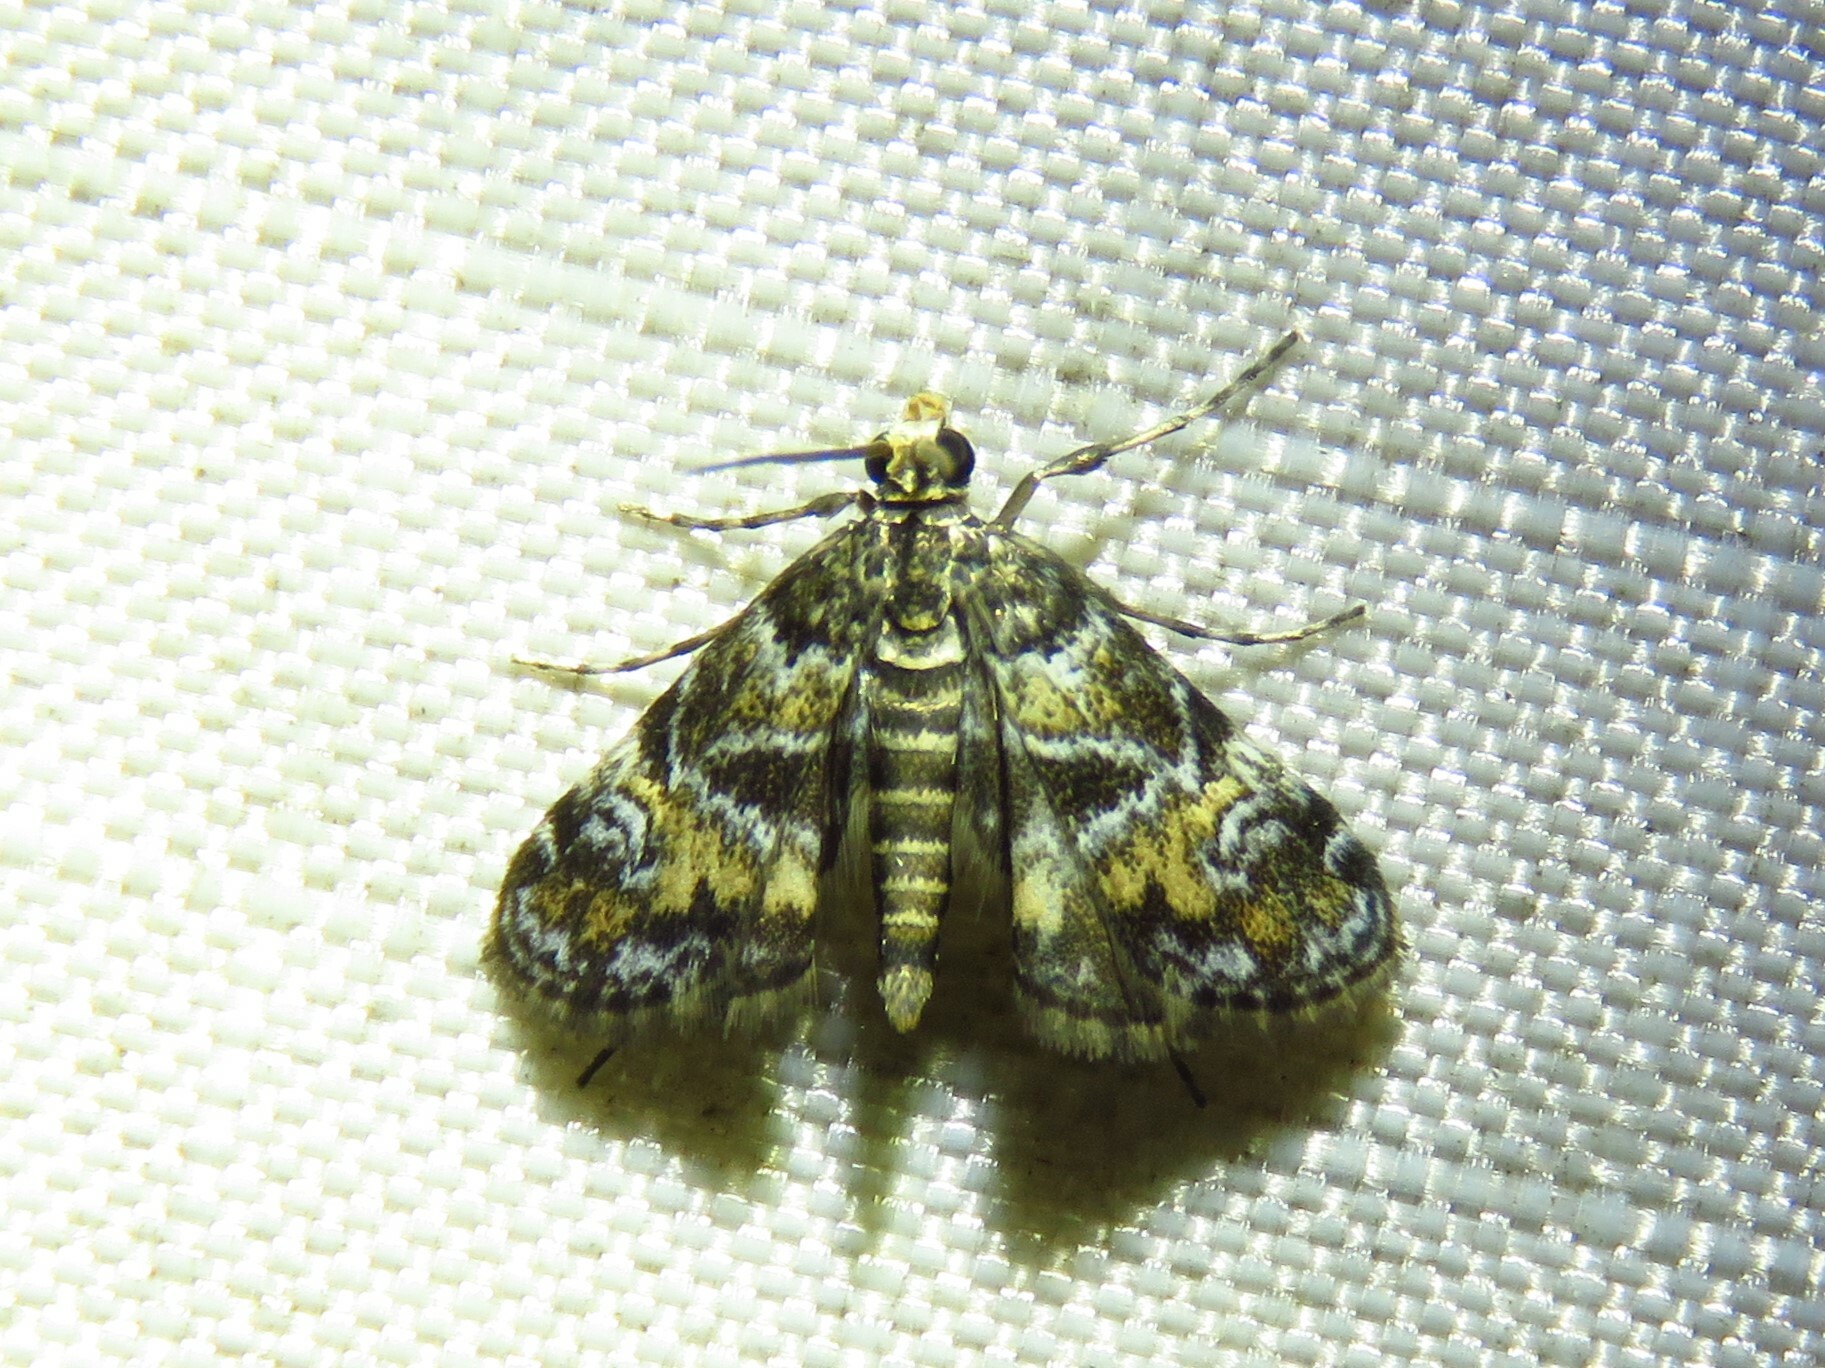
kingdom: Animalia
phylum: Arthropoda
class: Insecta
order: Lepidoptera
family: Crambidae
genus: Elophila
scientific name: Elophila obliteralis
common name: Waterlily leafcutter moth
